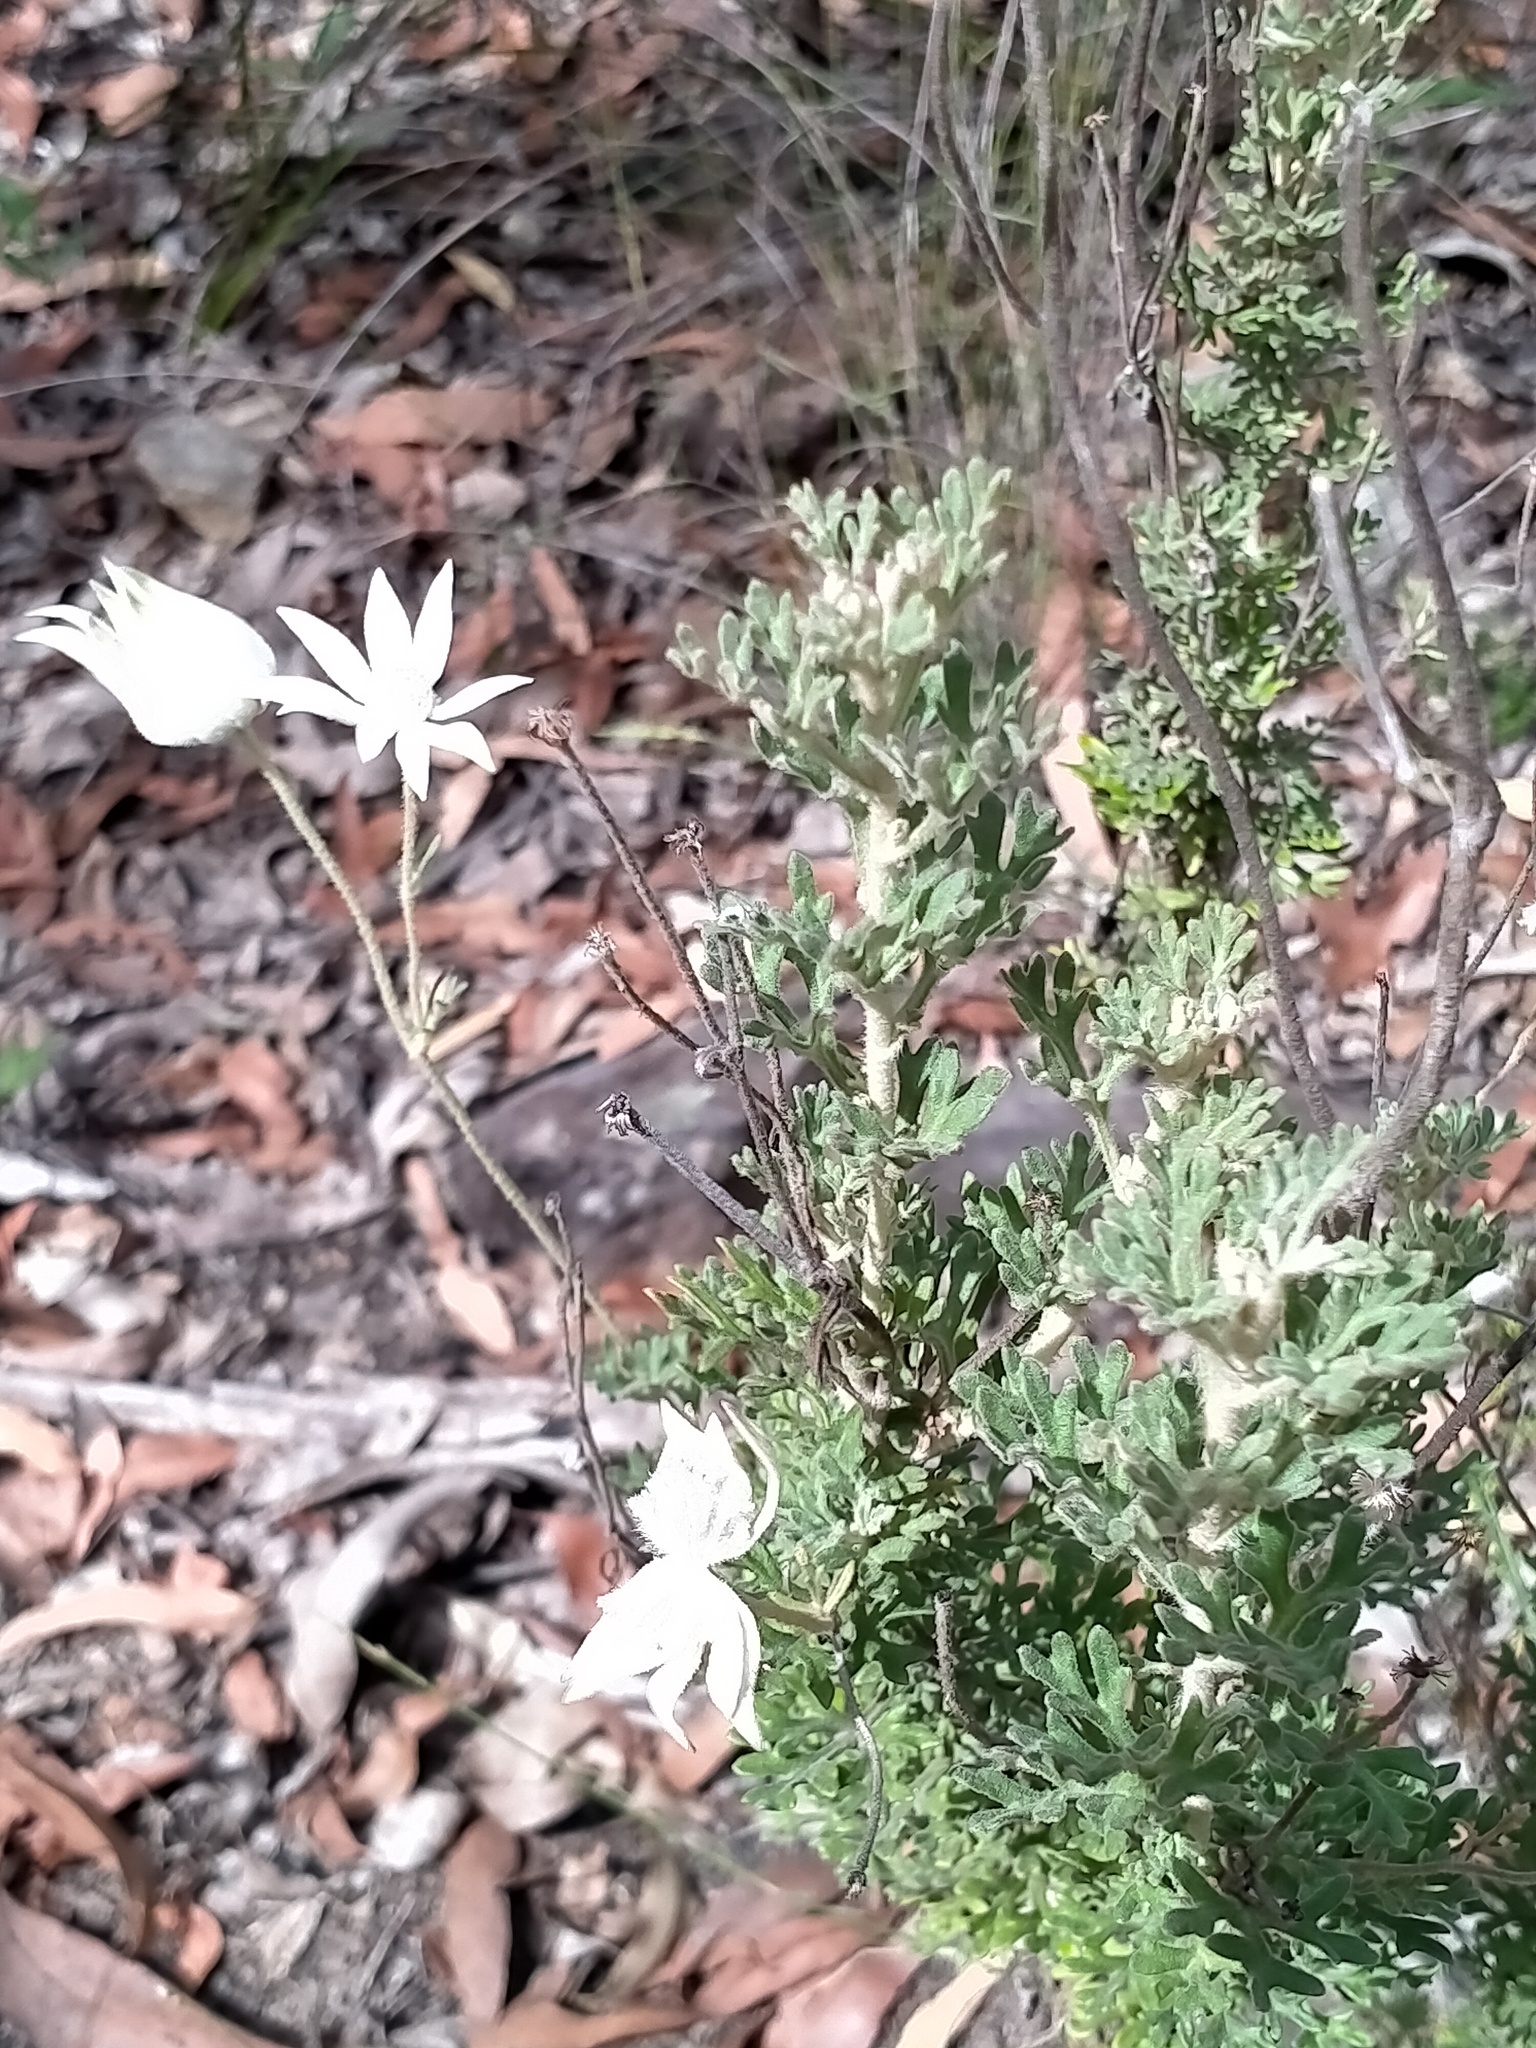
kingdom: Plantae
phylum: Tracheophyta
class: Magnoliopsida
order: Apiales
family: Apiaceae
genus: Actinotus
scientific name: Actinotus helianthi
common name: Flannel-flower
